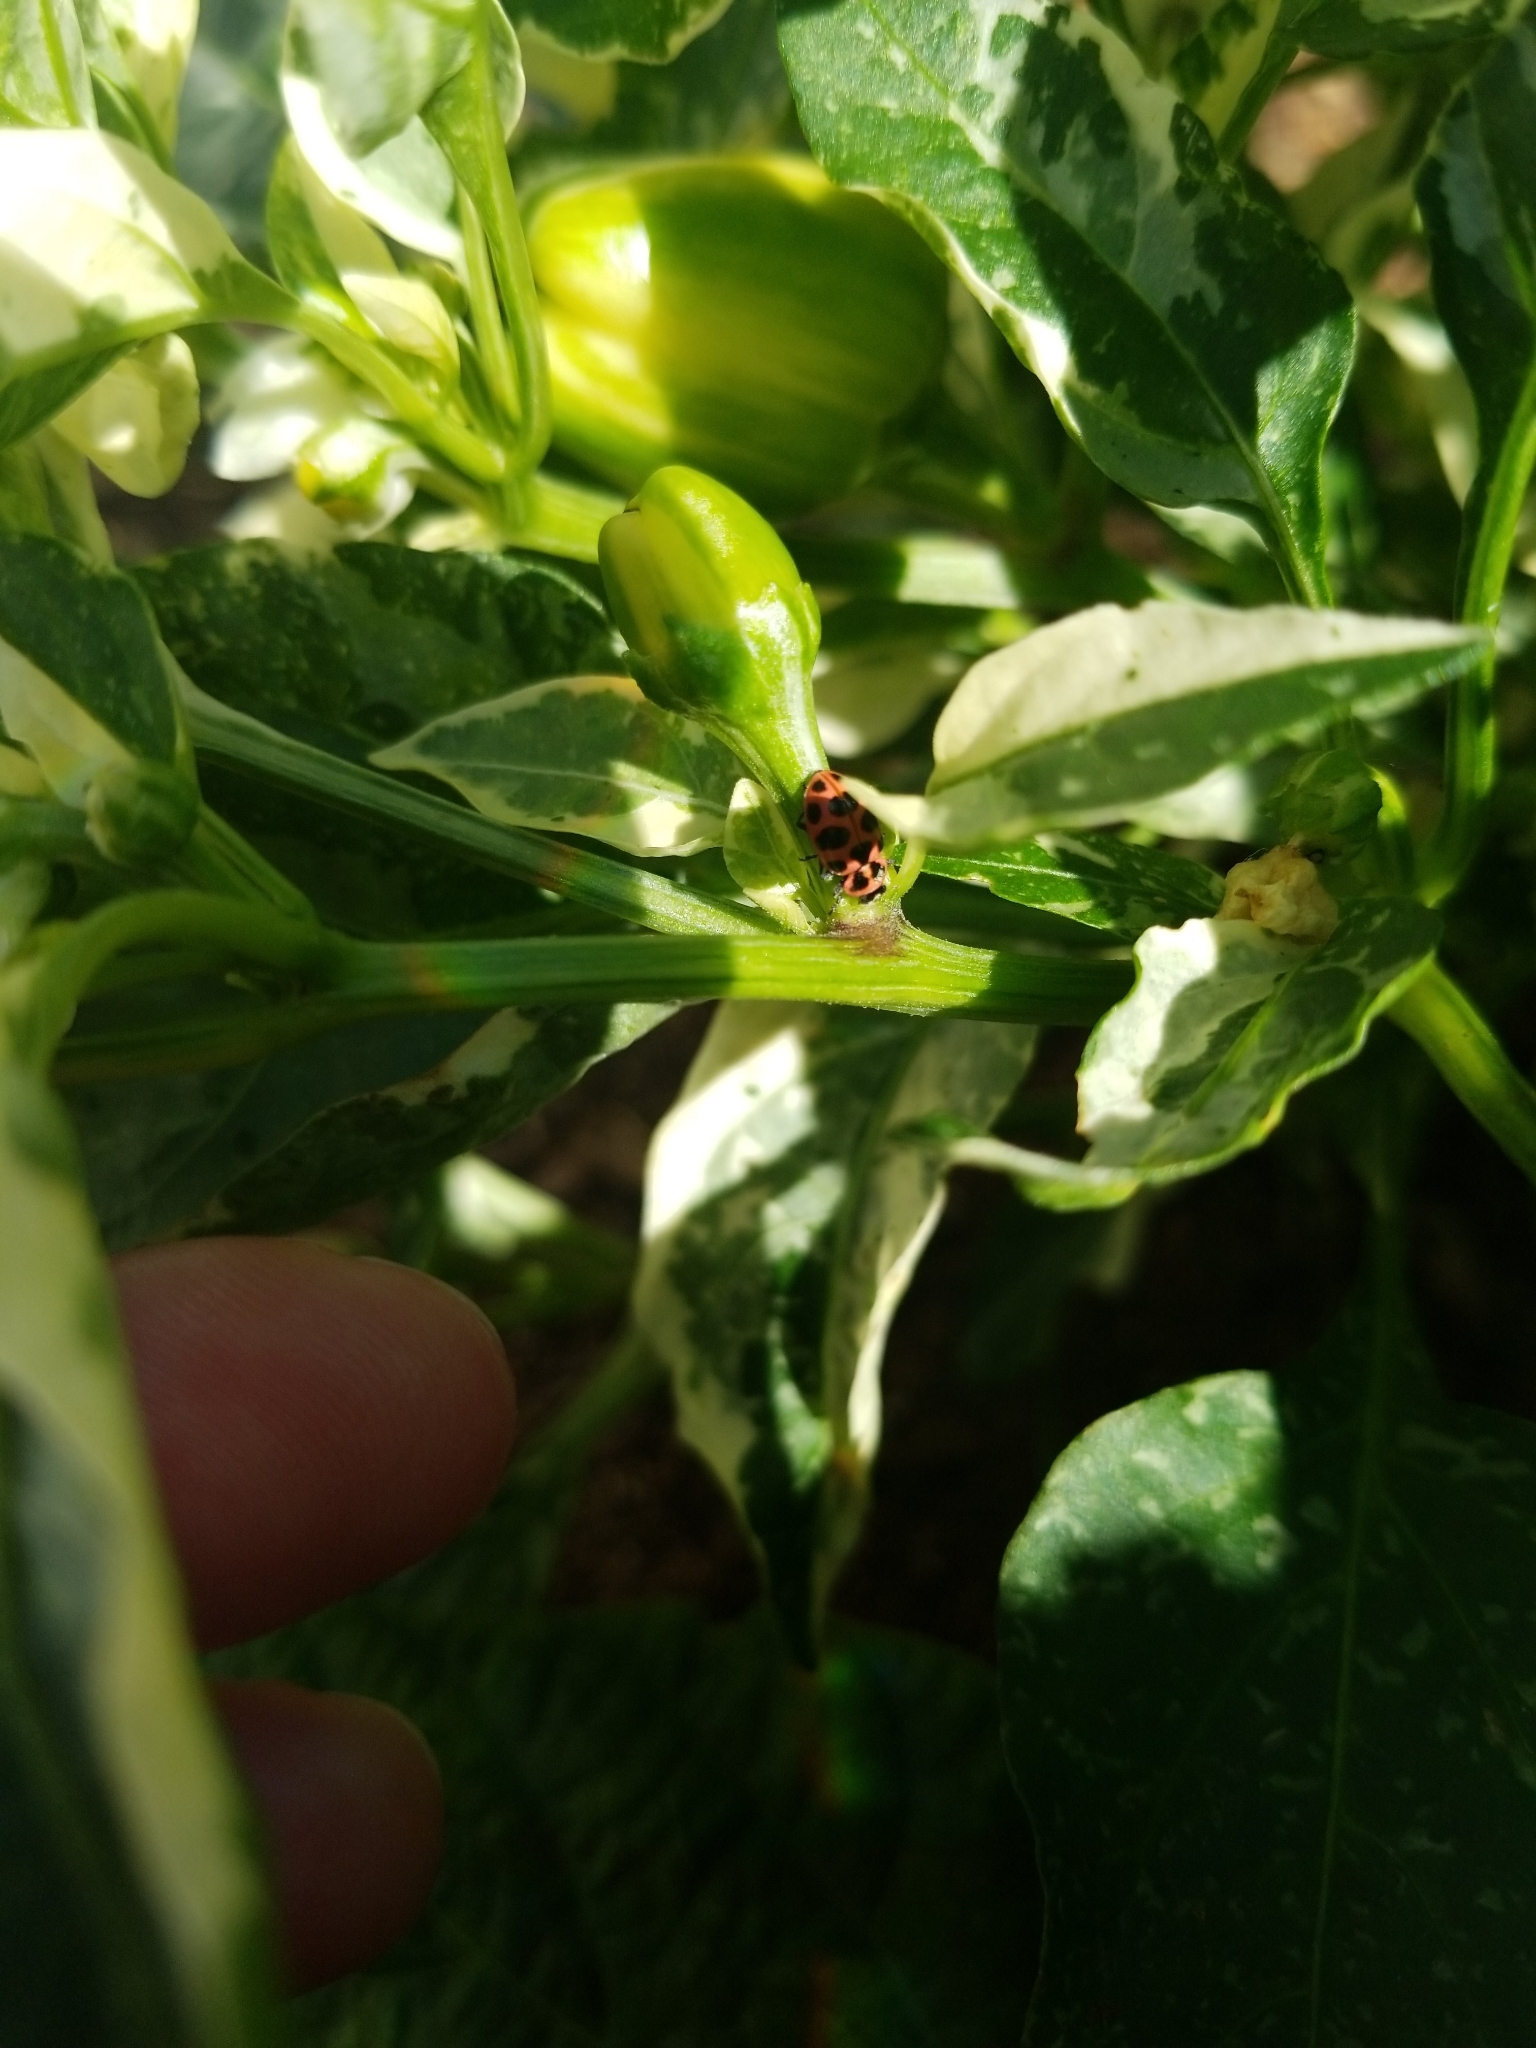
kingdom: Animalia
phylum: Arthropoda
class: Insecta
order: Coleoptera
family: Coccinellidae
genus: Coleomegilla
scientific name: Coleomegilla maculata
